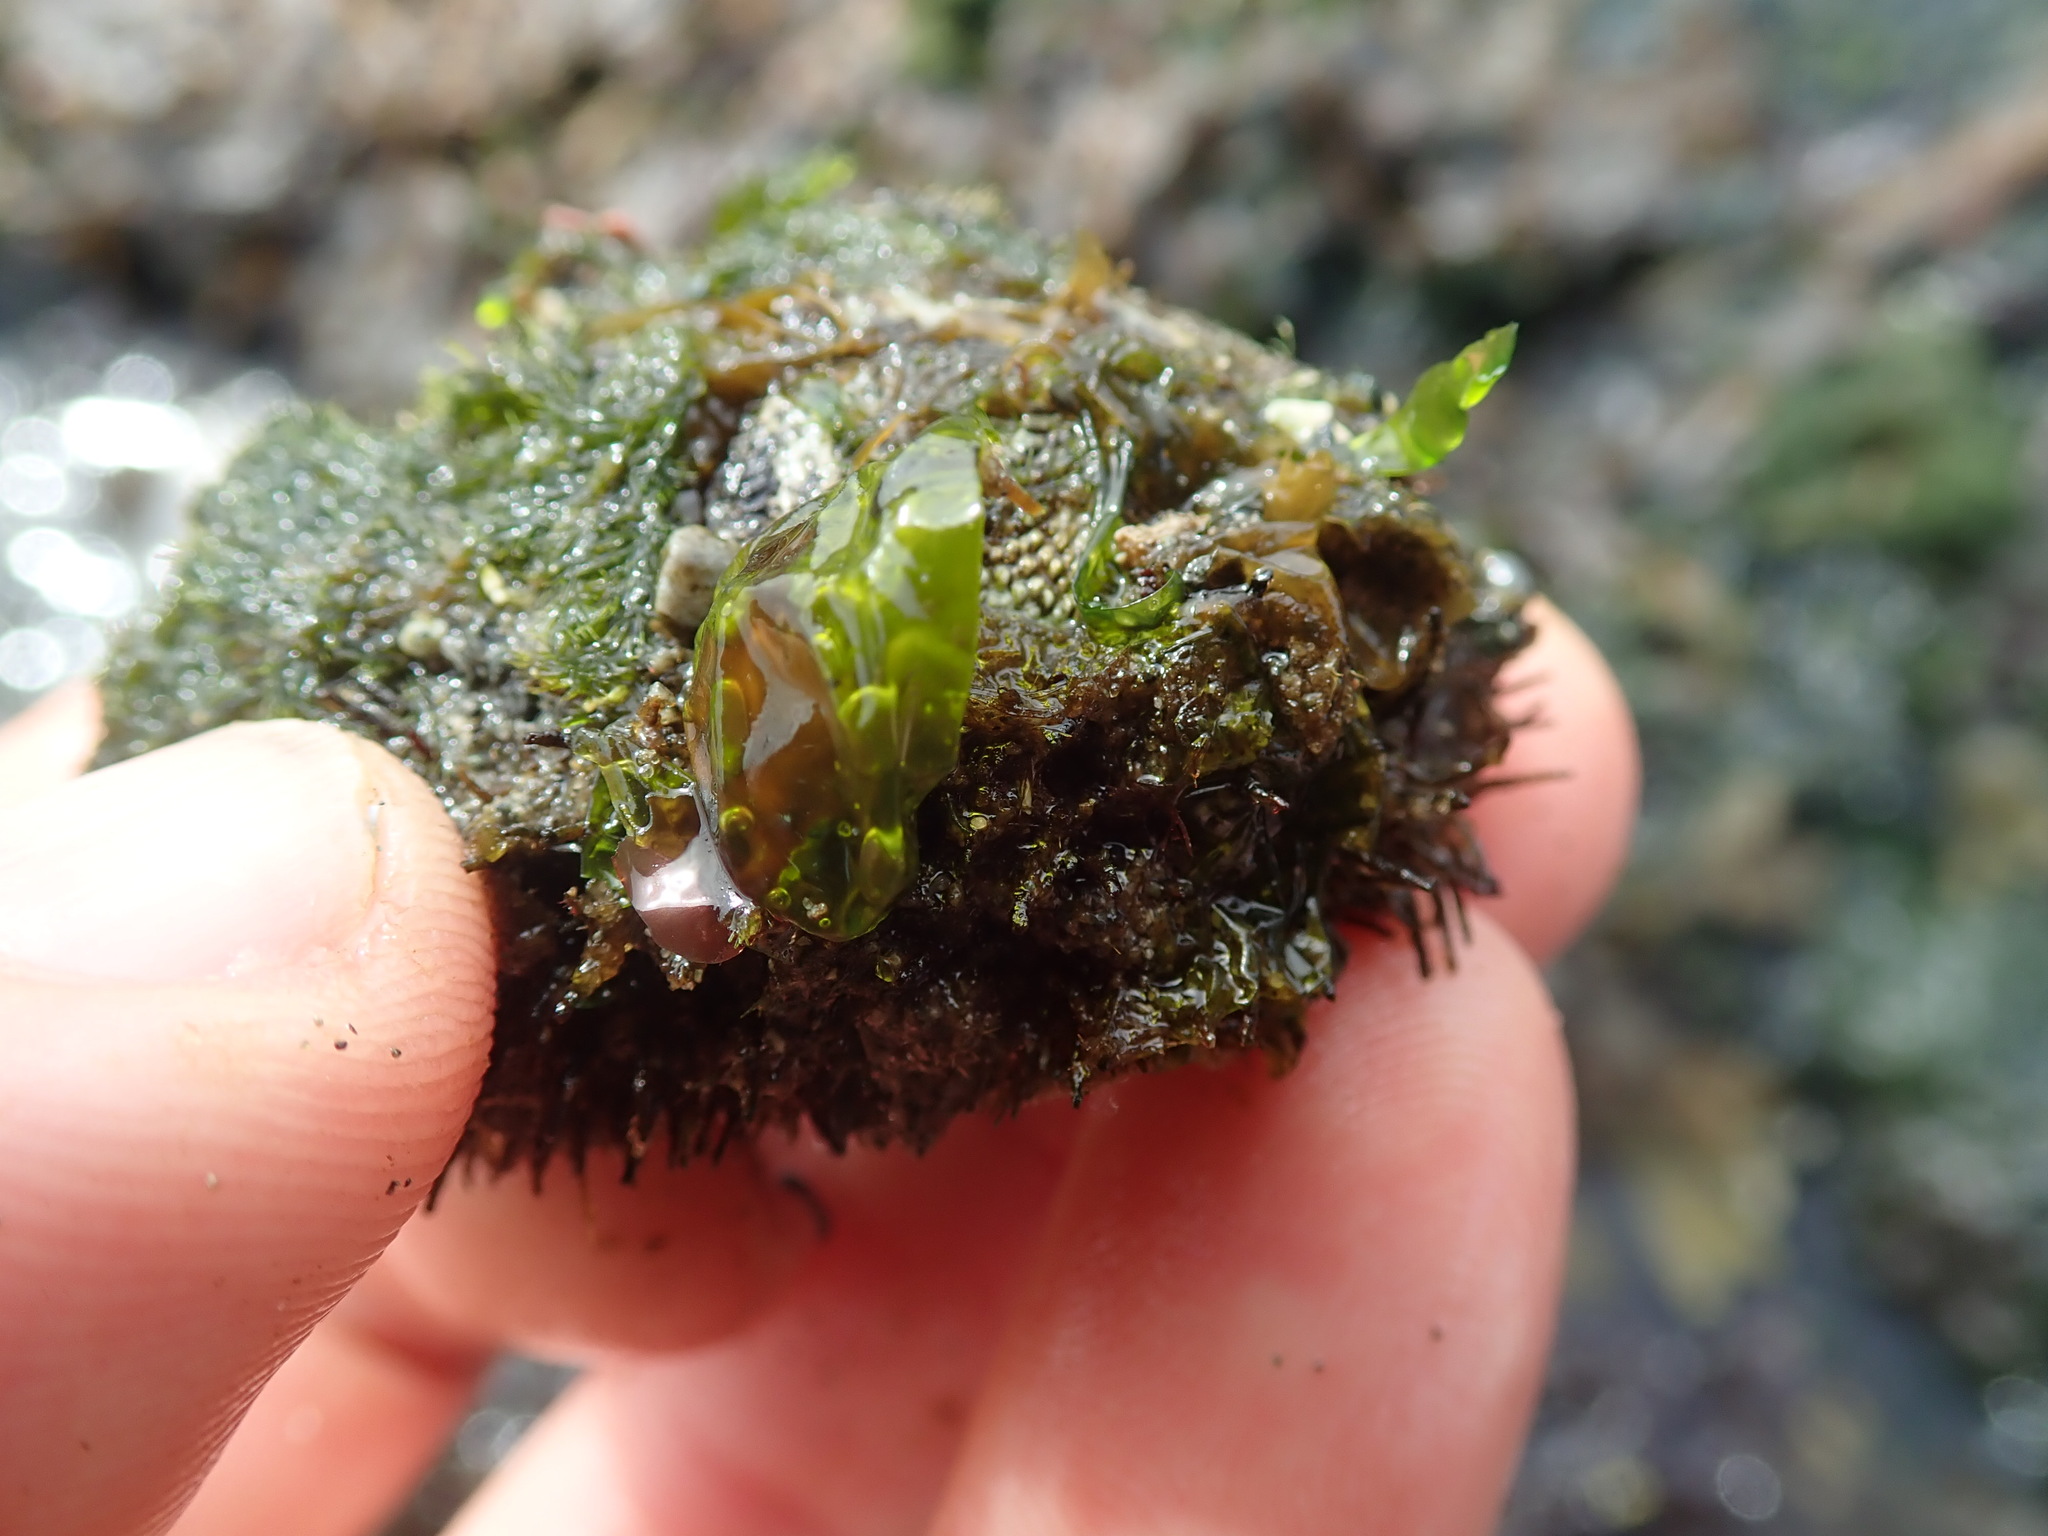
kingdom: Animalia
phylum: Mollusca
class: Polyplacophora
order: Chitonida
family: Mopaliidae
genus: Mopalia
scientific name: Mopalia muscosa
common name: Mossy chiton
